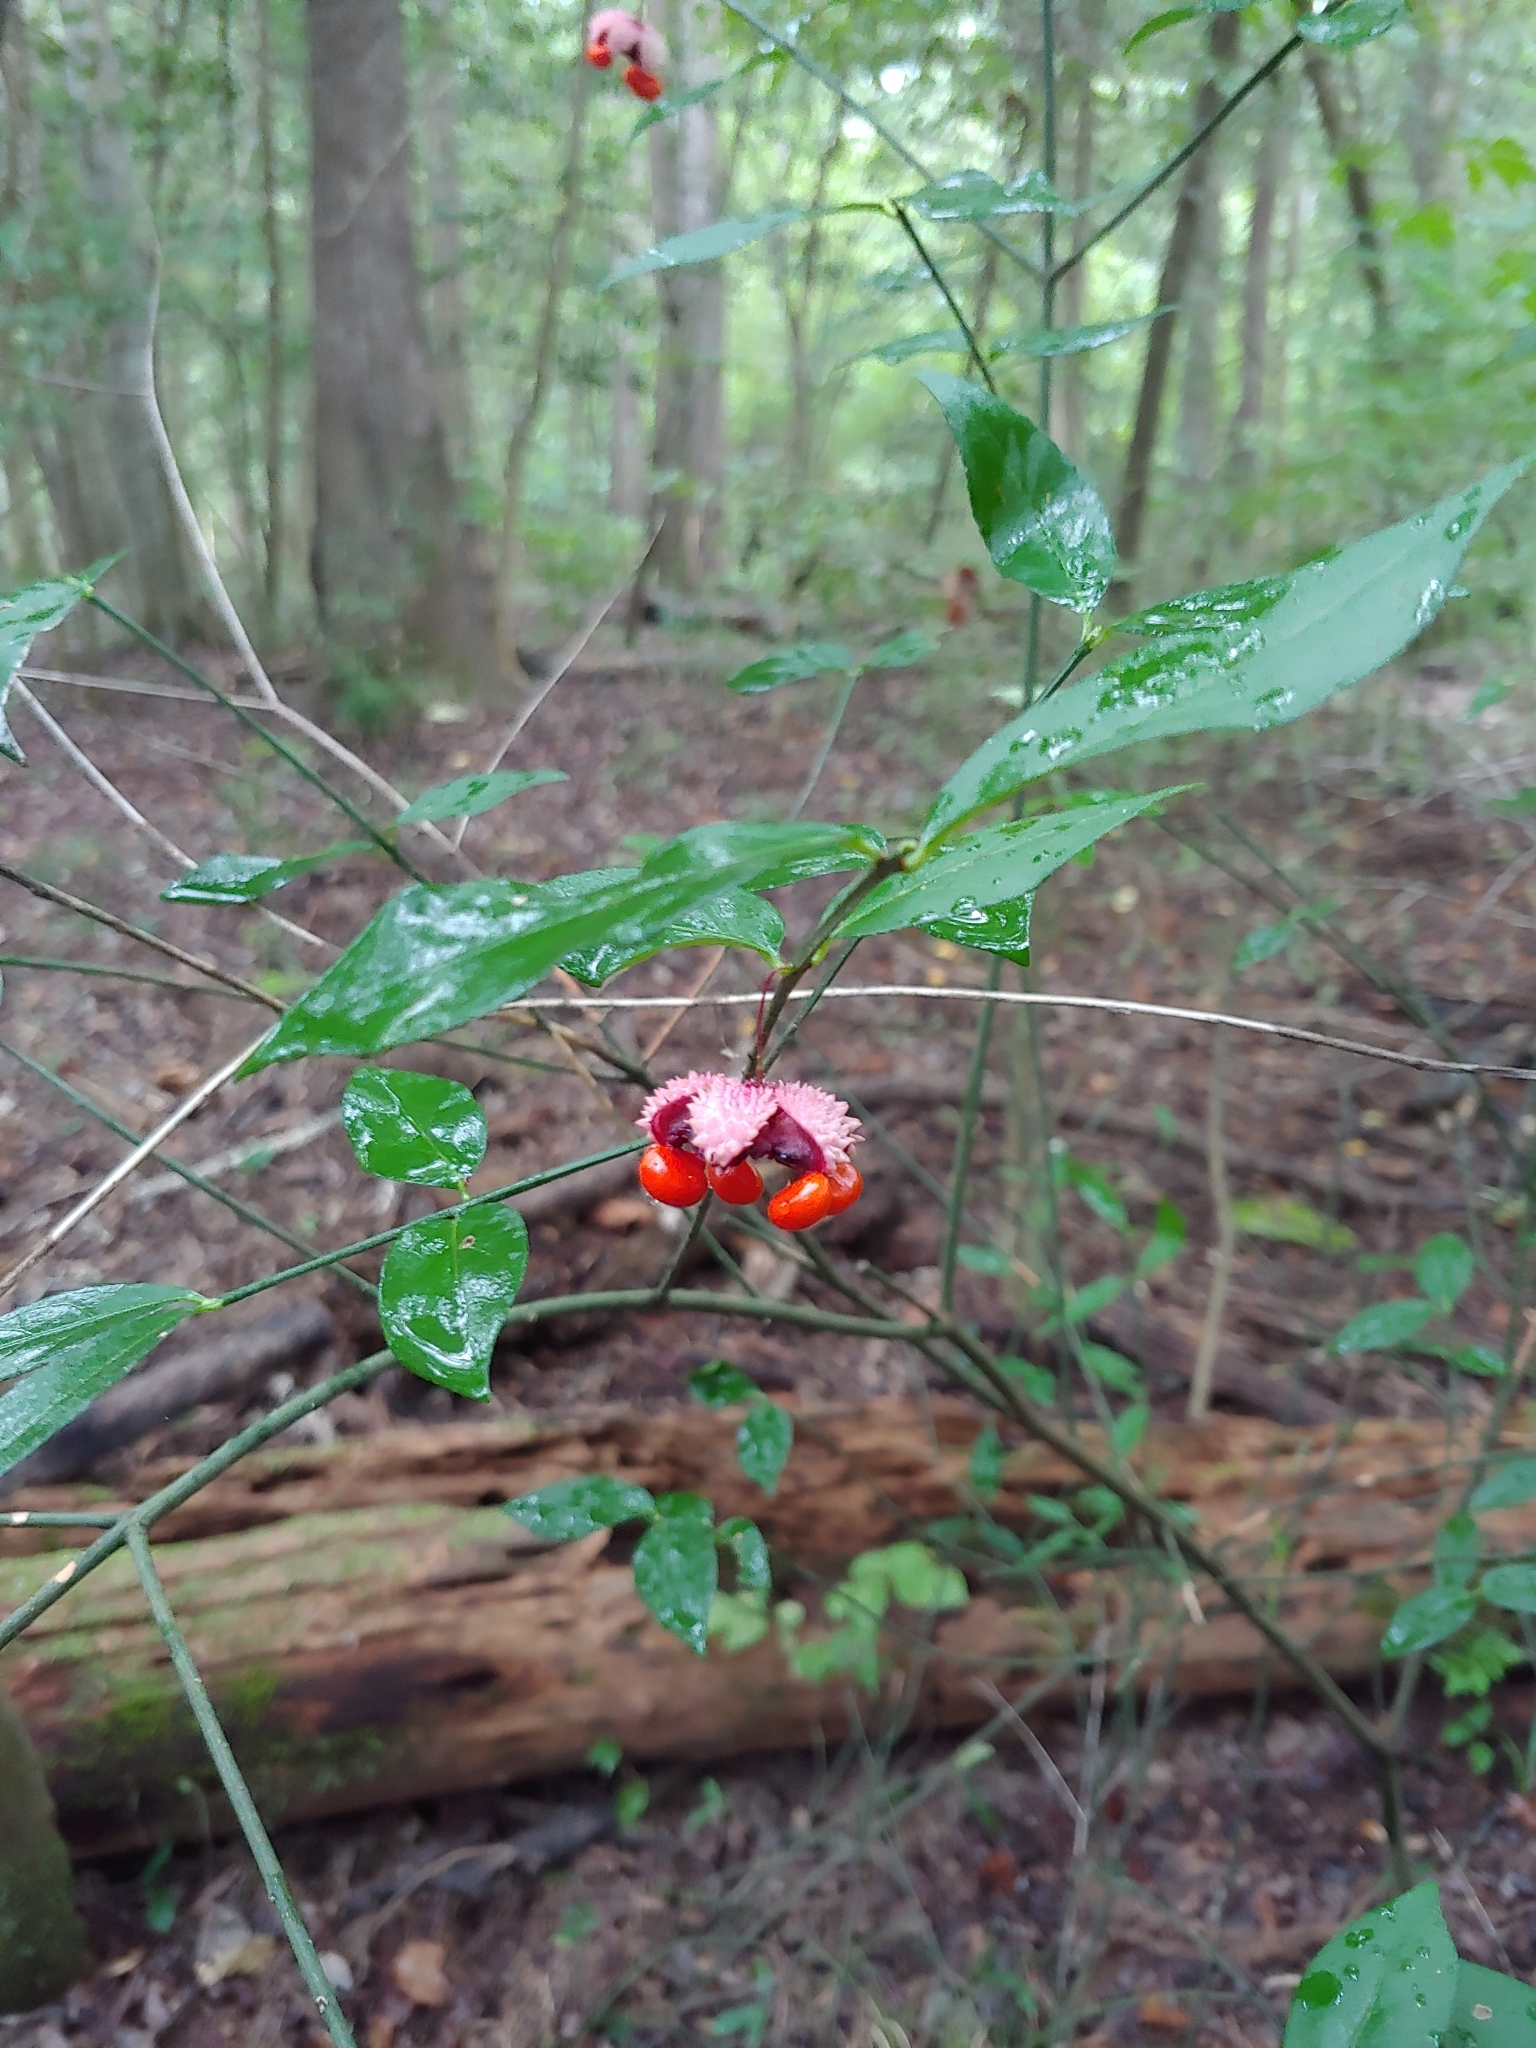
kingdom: Plantae
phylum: Tracheophyta
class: Magnoliopsida
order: Celastrales
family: Celastraceae
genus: Euonymus
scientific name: Euonymus americanus
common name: Bursting-heart
